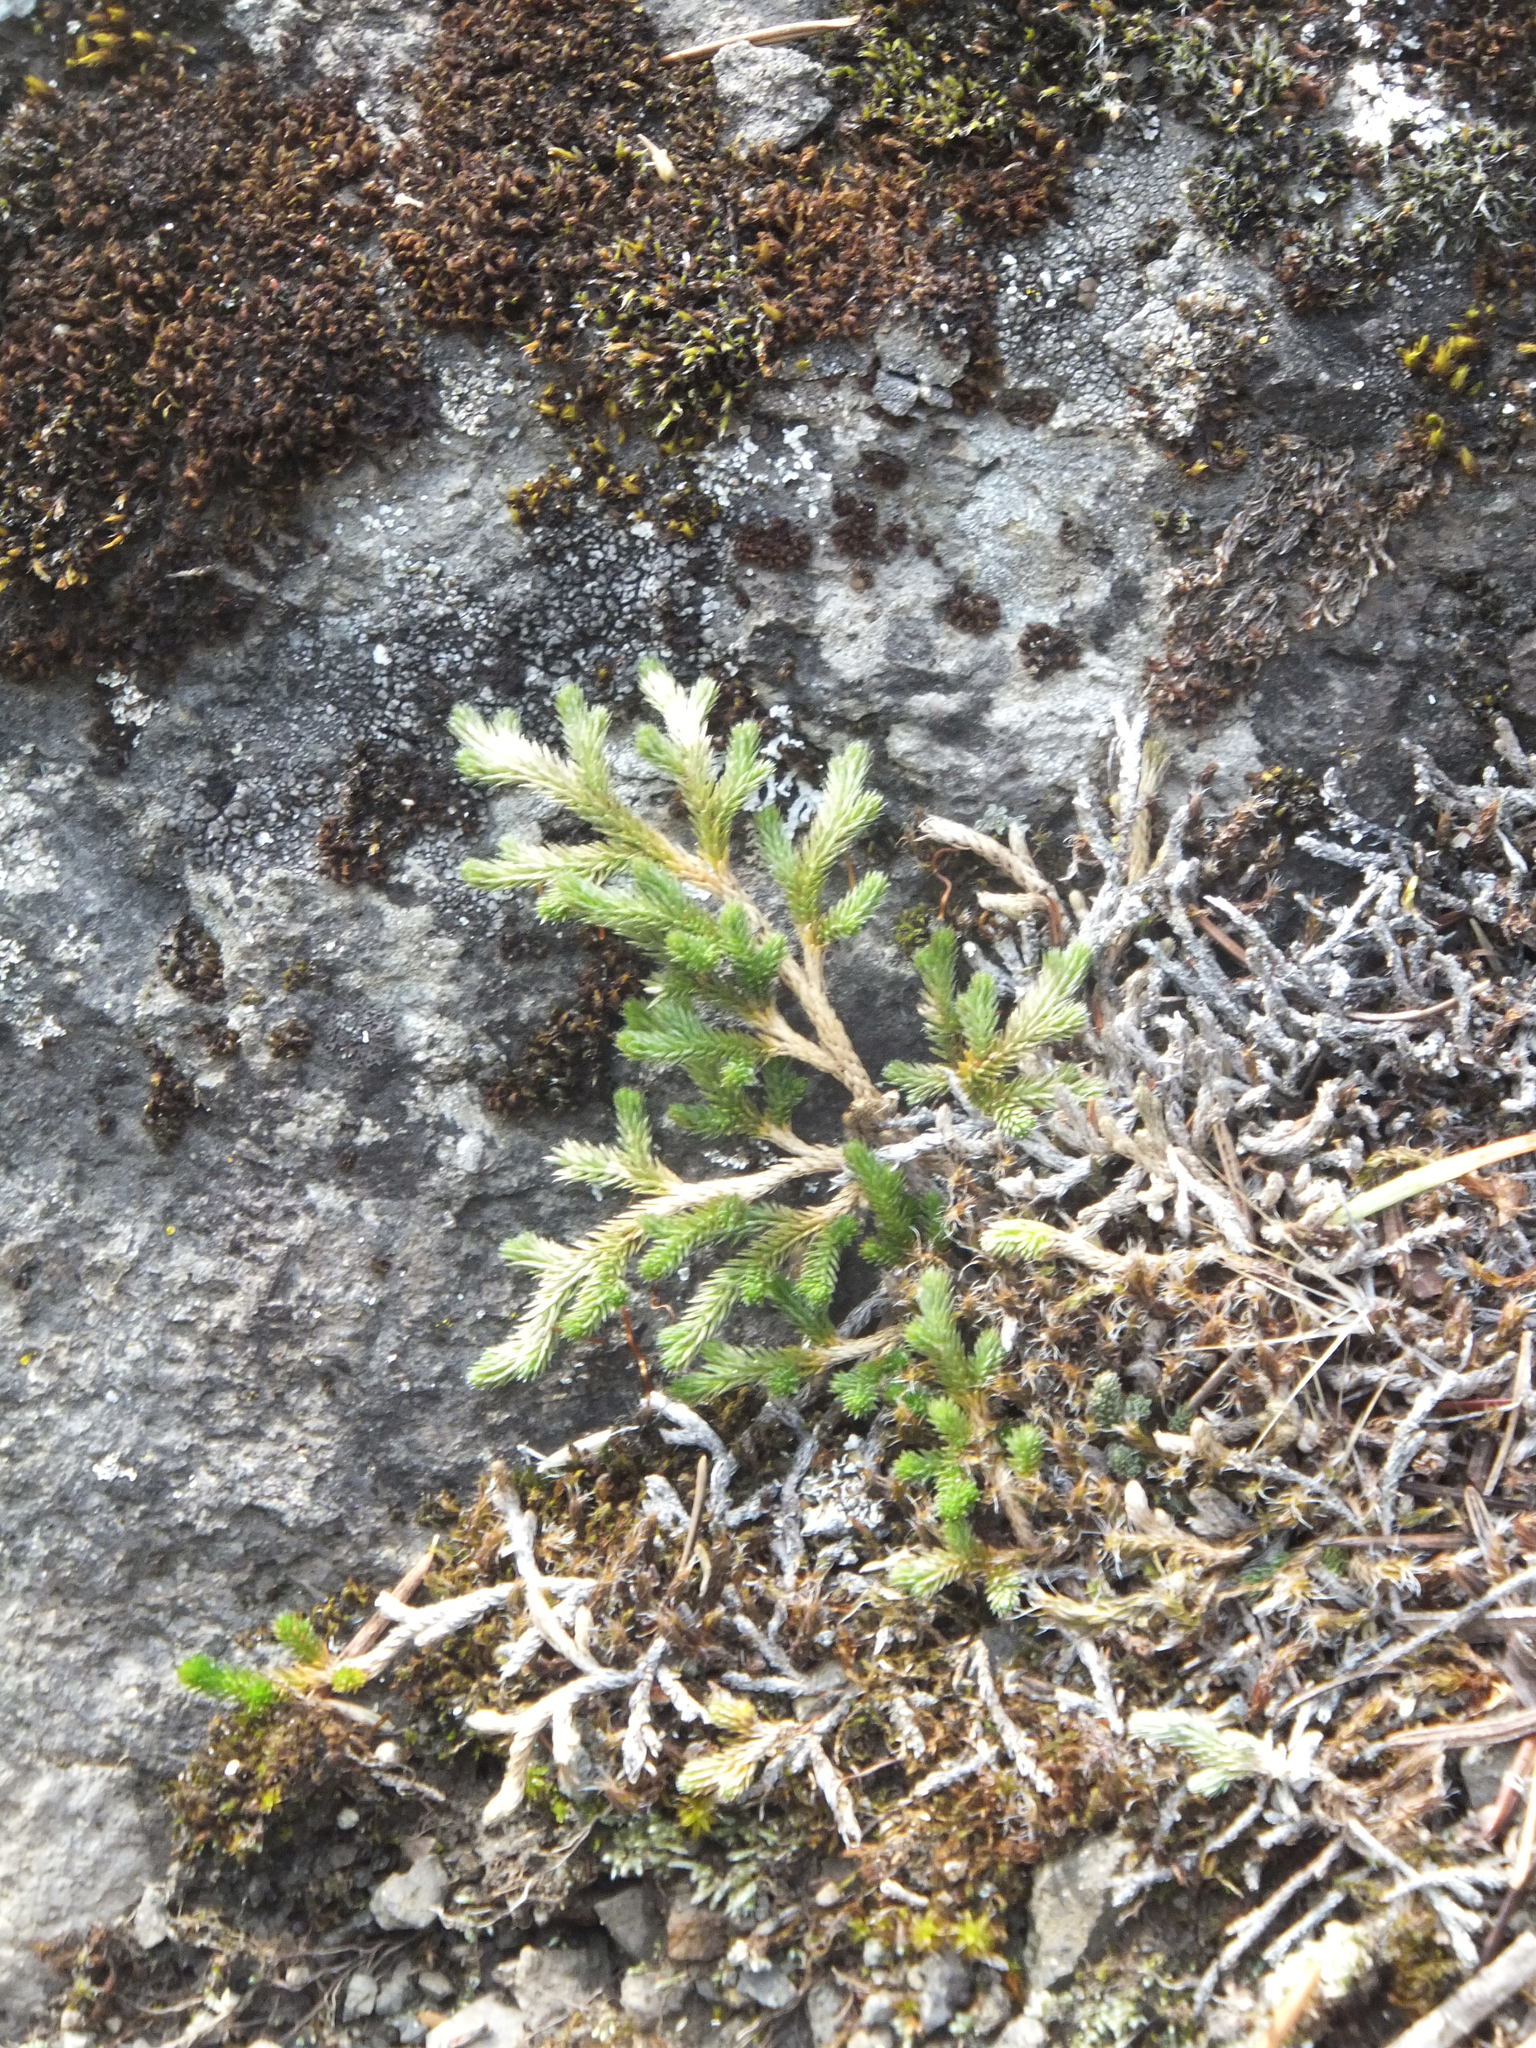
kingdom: Plantae
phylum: Tracheophyta
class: Lycopodiopsida
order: Selaginellales
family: Selaginellaceae
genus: Selaginella
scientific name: Selaginella wallacei
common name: Wallace's selaginella
